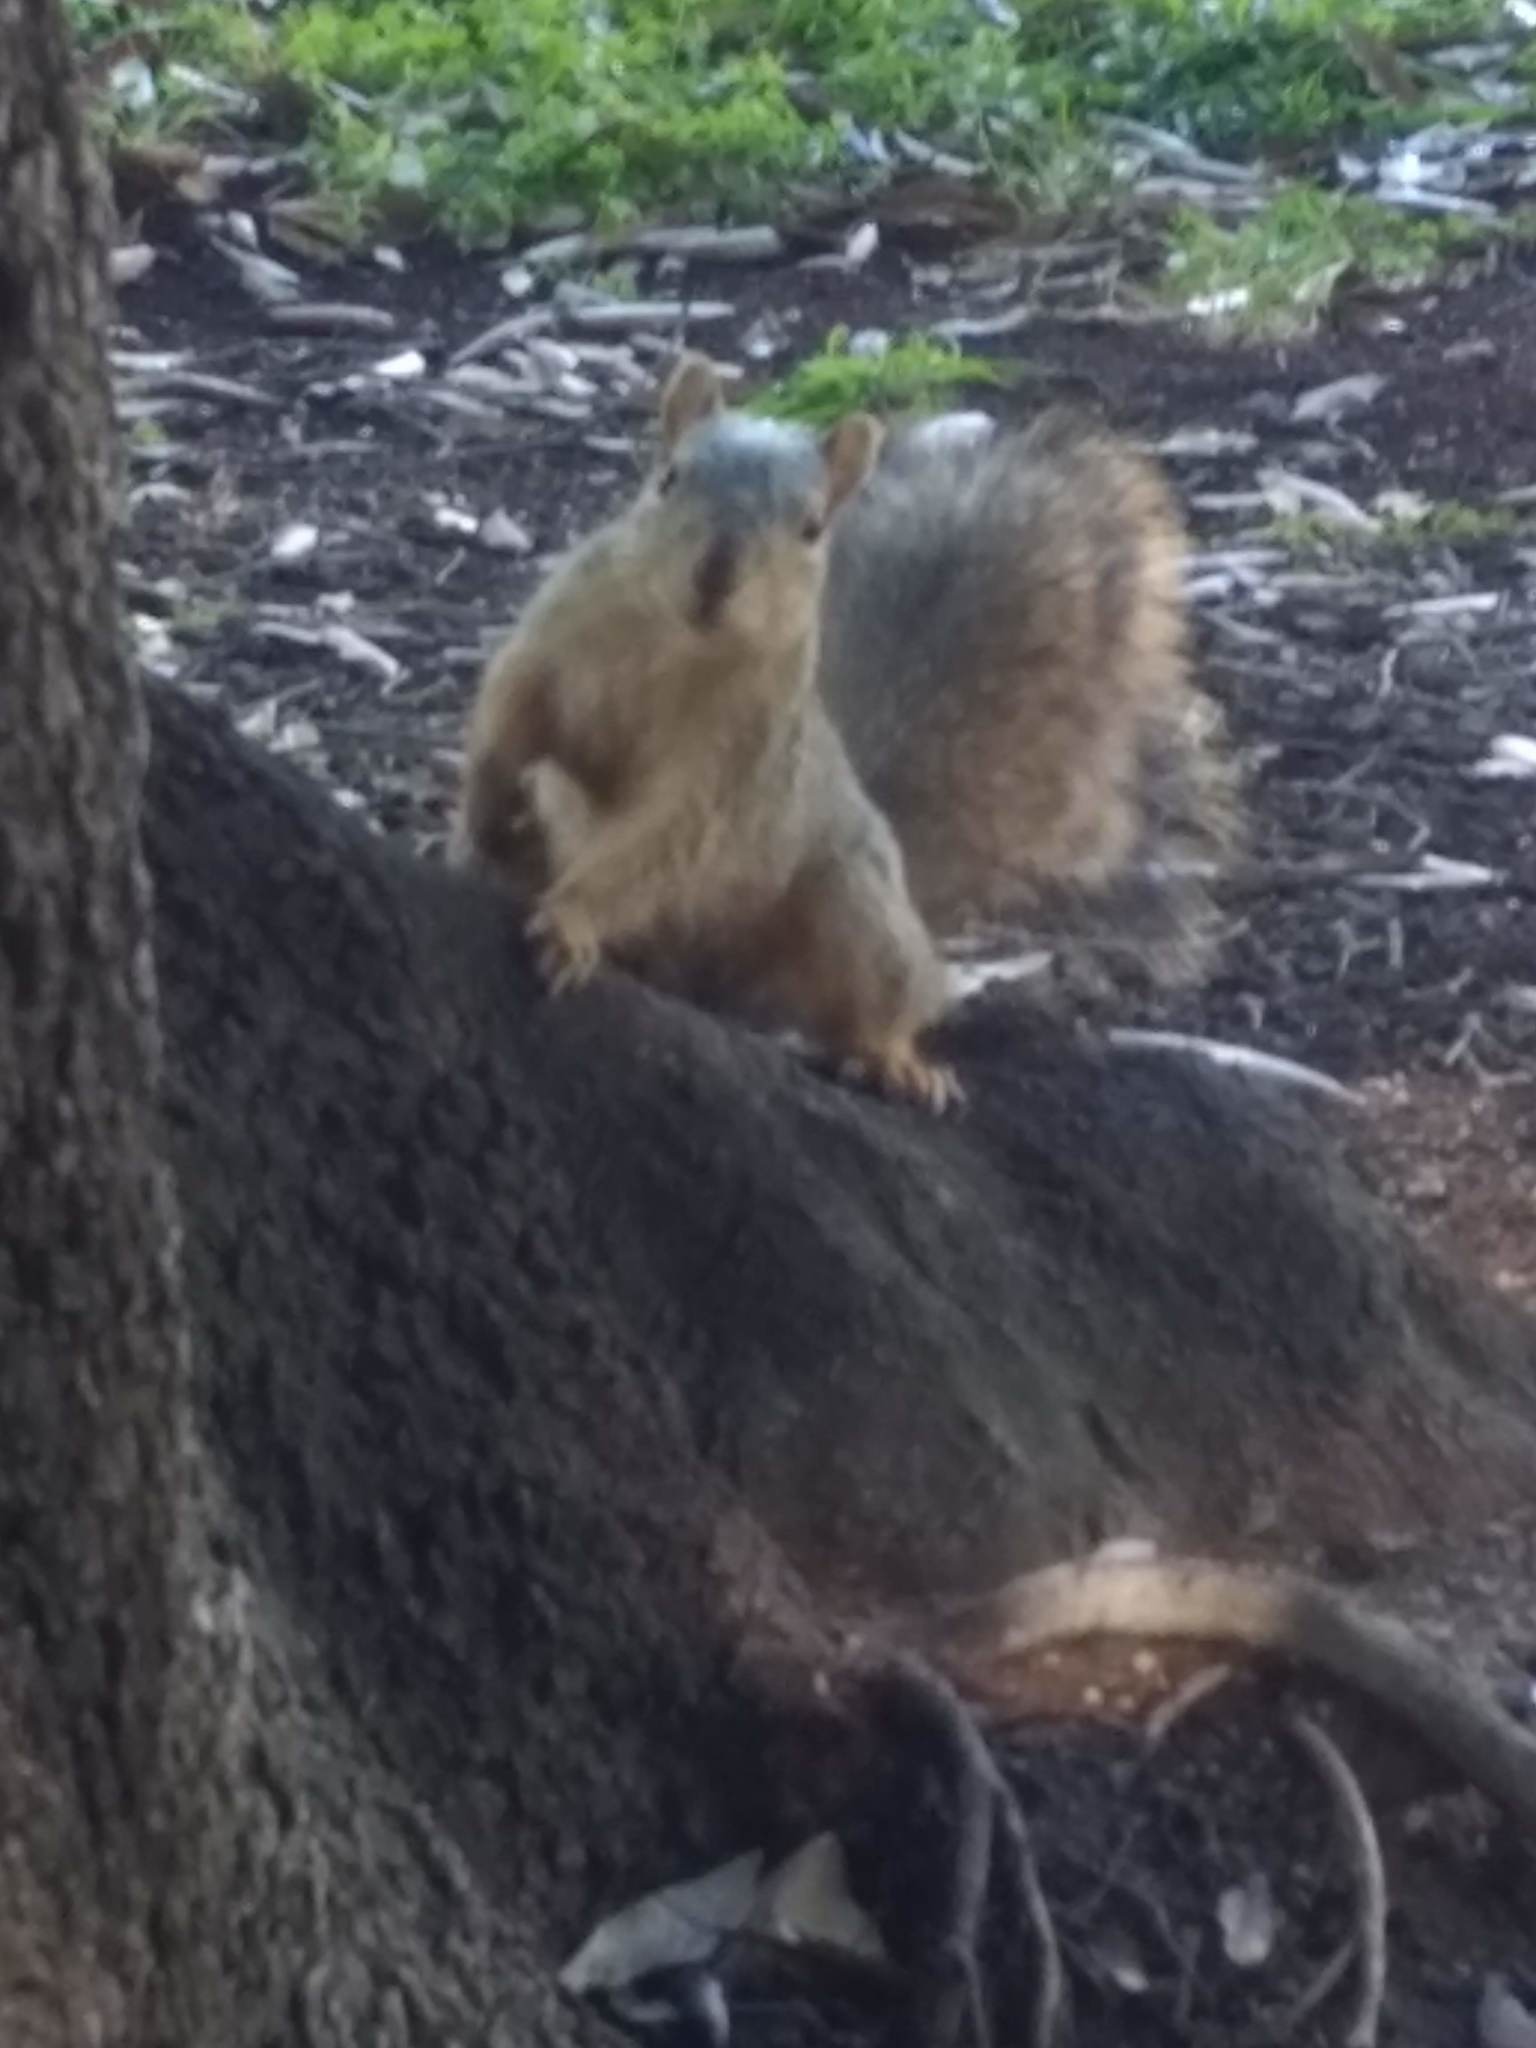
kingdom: Animalia
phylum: Chordata
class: Mammalia
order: Rodentia
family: Sciuridae
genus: Sciurus
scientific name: Sciurus niger
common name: Fox squirrel
